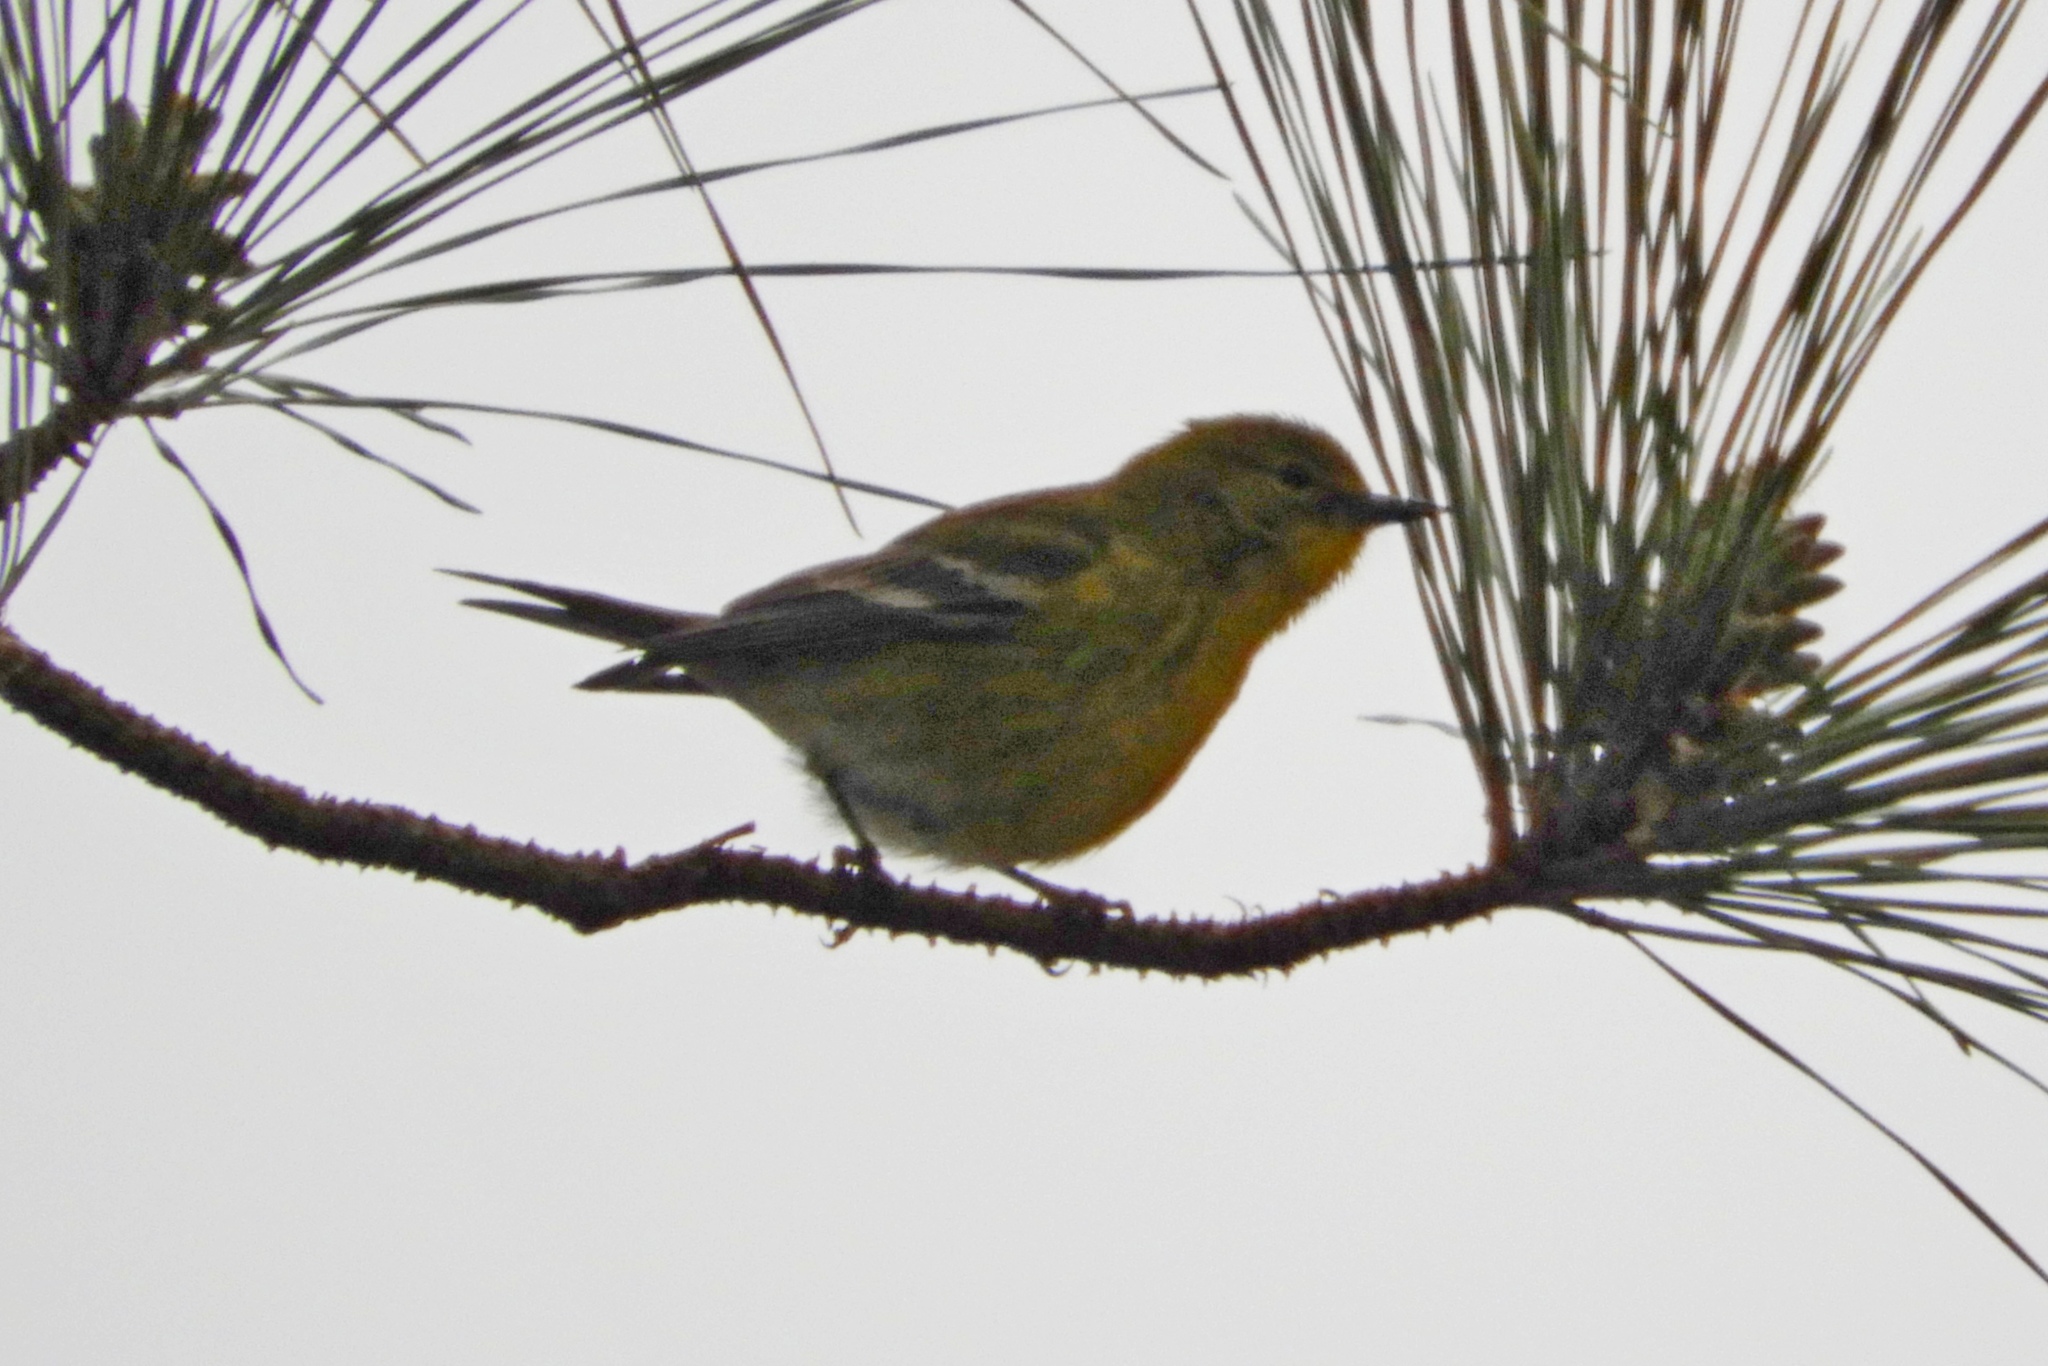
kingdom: Animalia
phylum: Chordata
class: Aves
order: Passeriformes
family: Parulidae
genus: Setophaga
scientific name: Setophaga pinus
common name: Pine warbler
